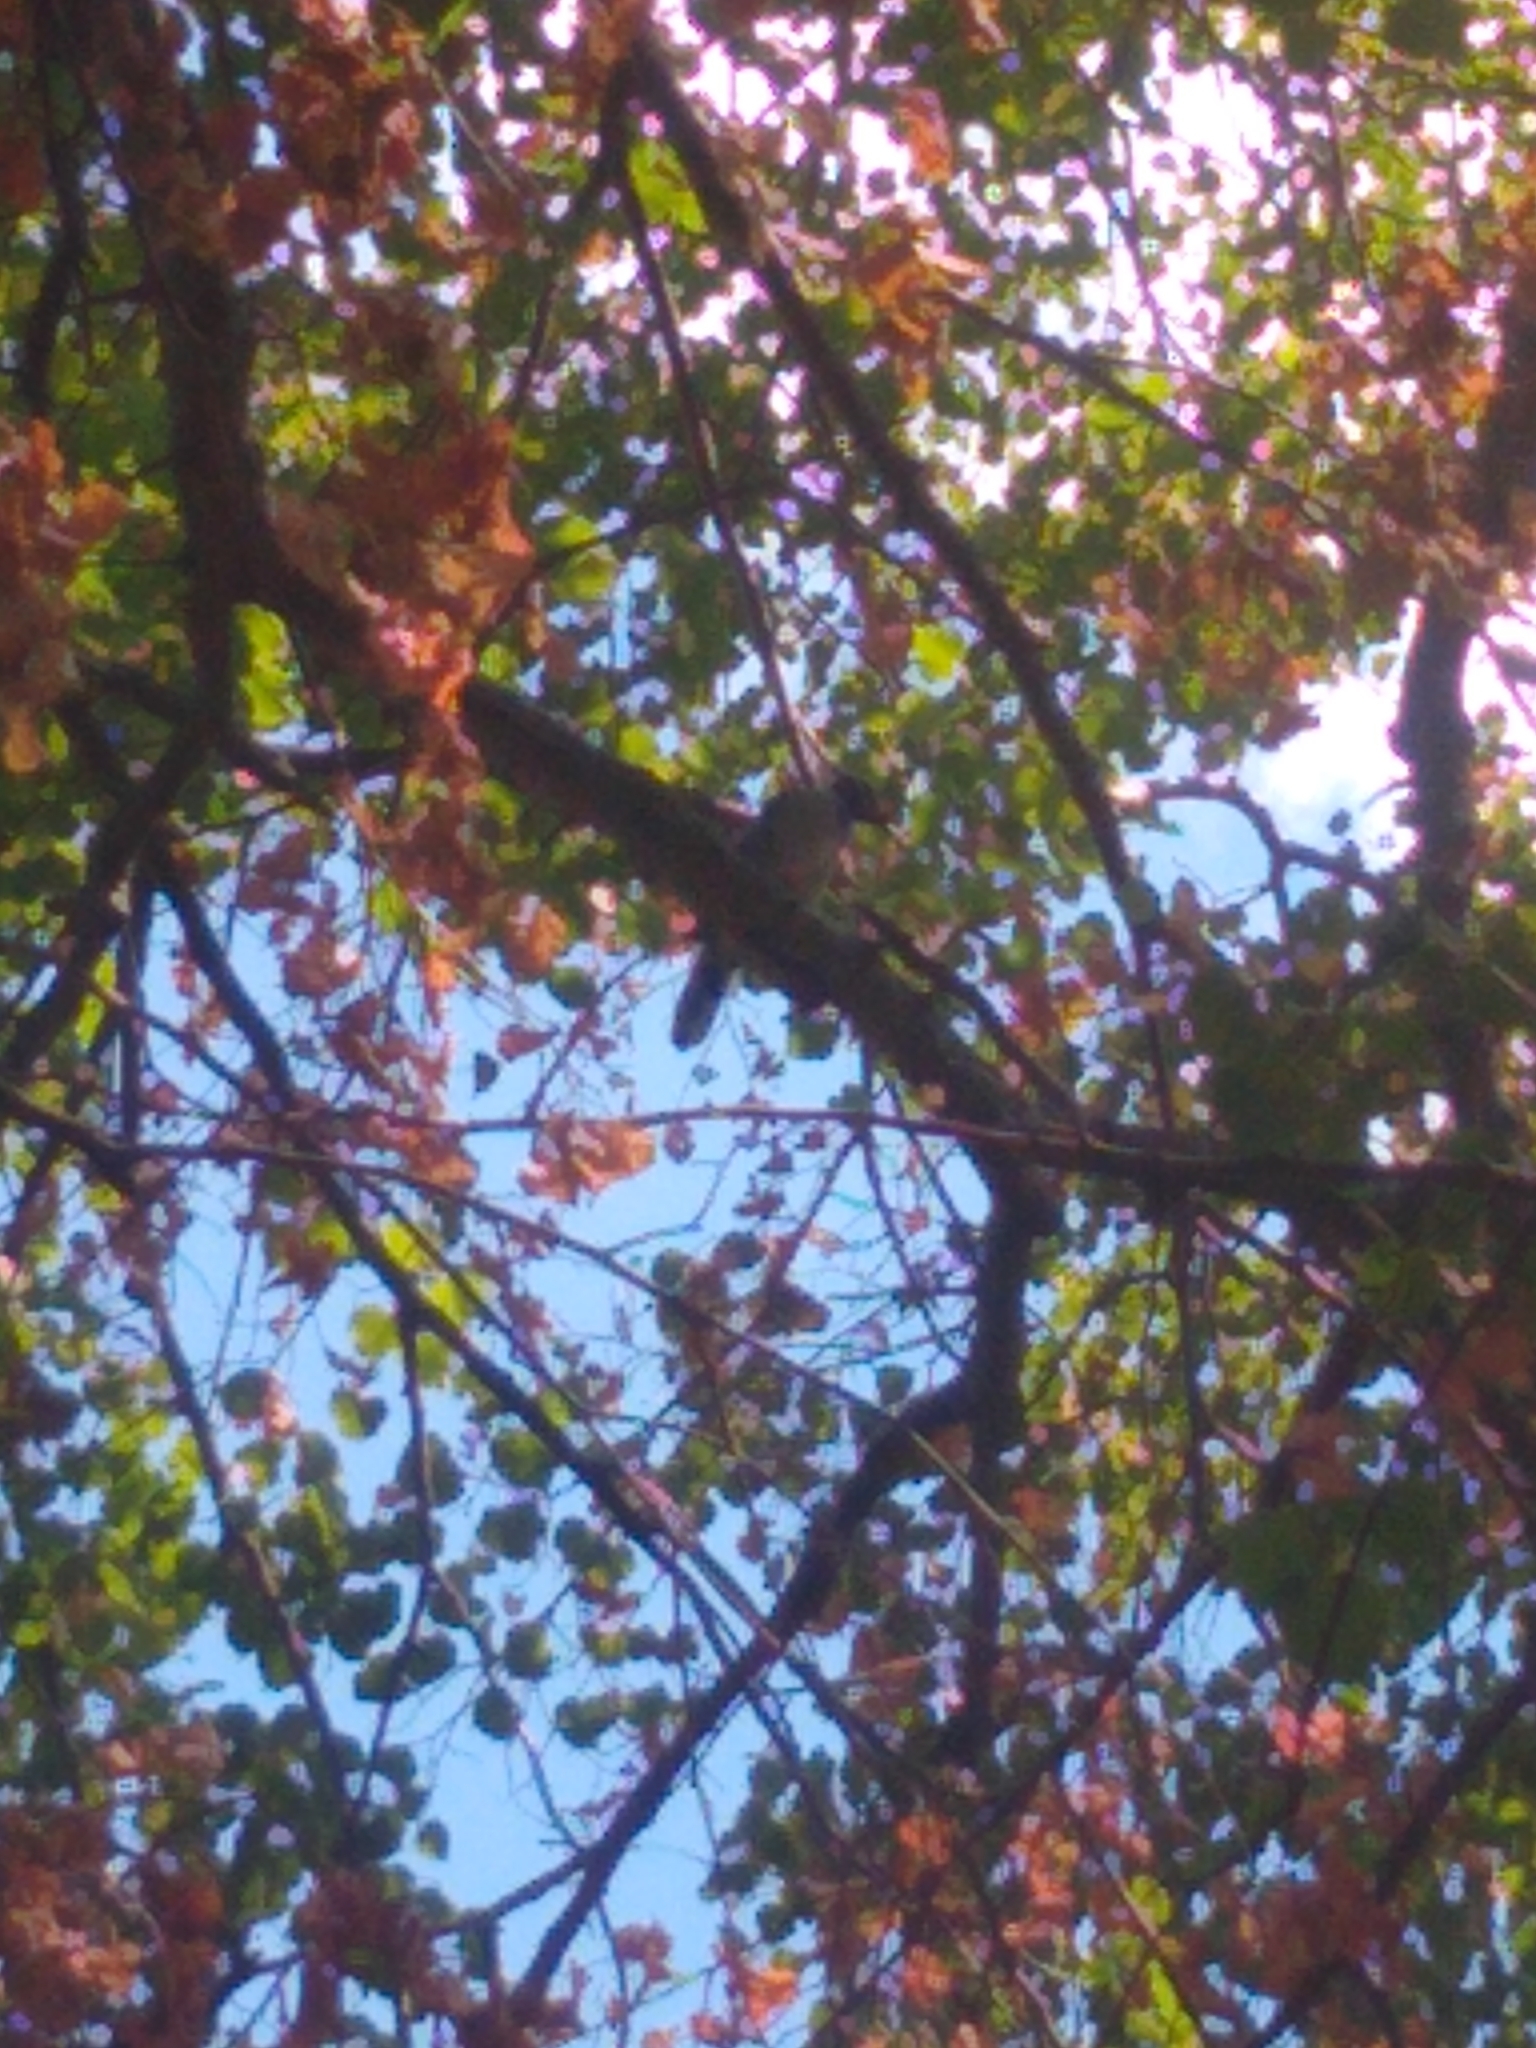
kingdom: Animalia
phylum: Chordata
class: Aves
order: Passeriformes
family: Corvidae
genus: Cyanocitta
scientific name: Cyanocitta cristata
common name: Blue jay
